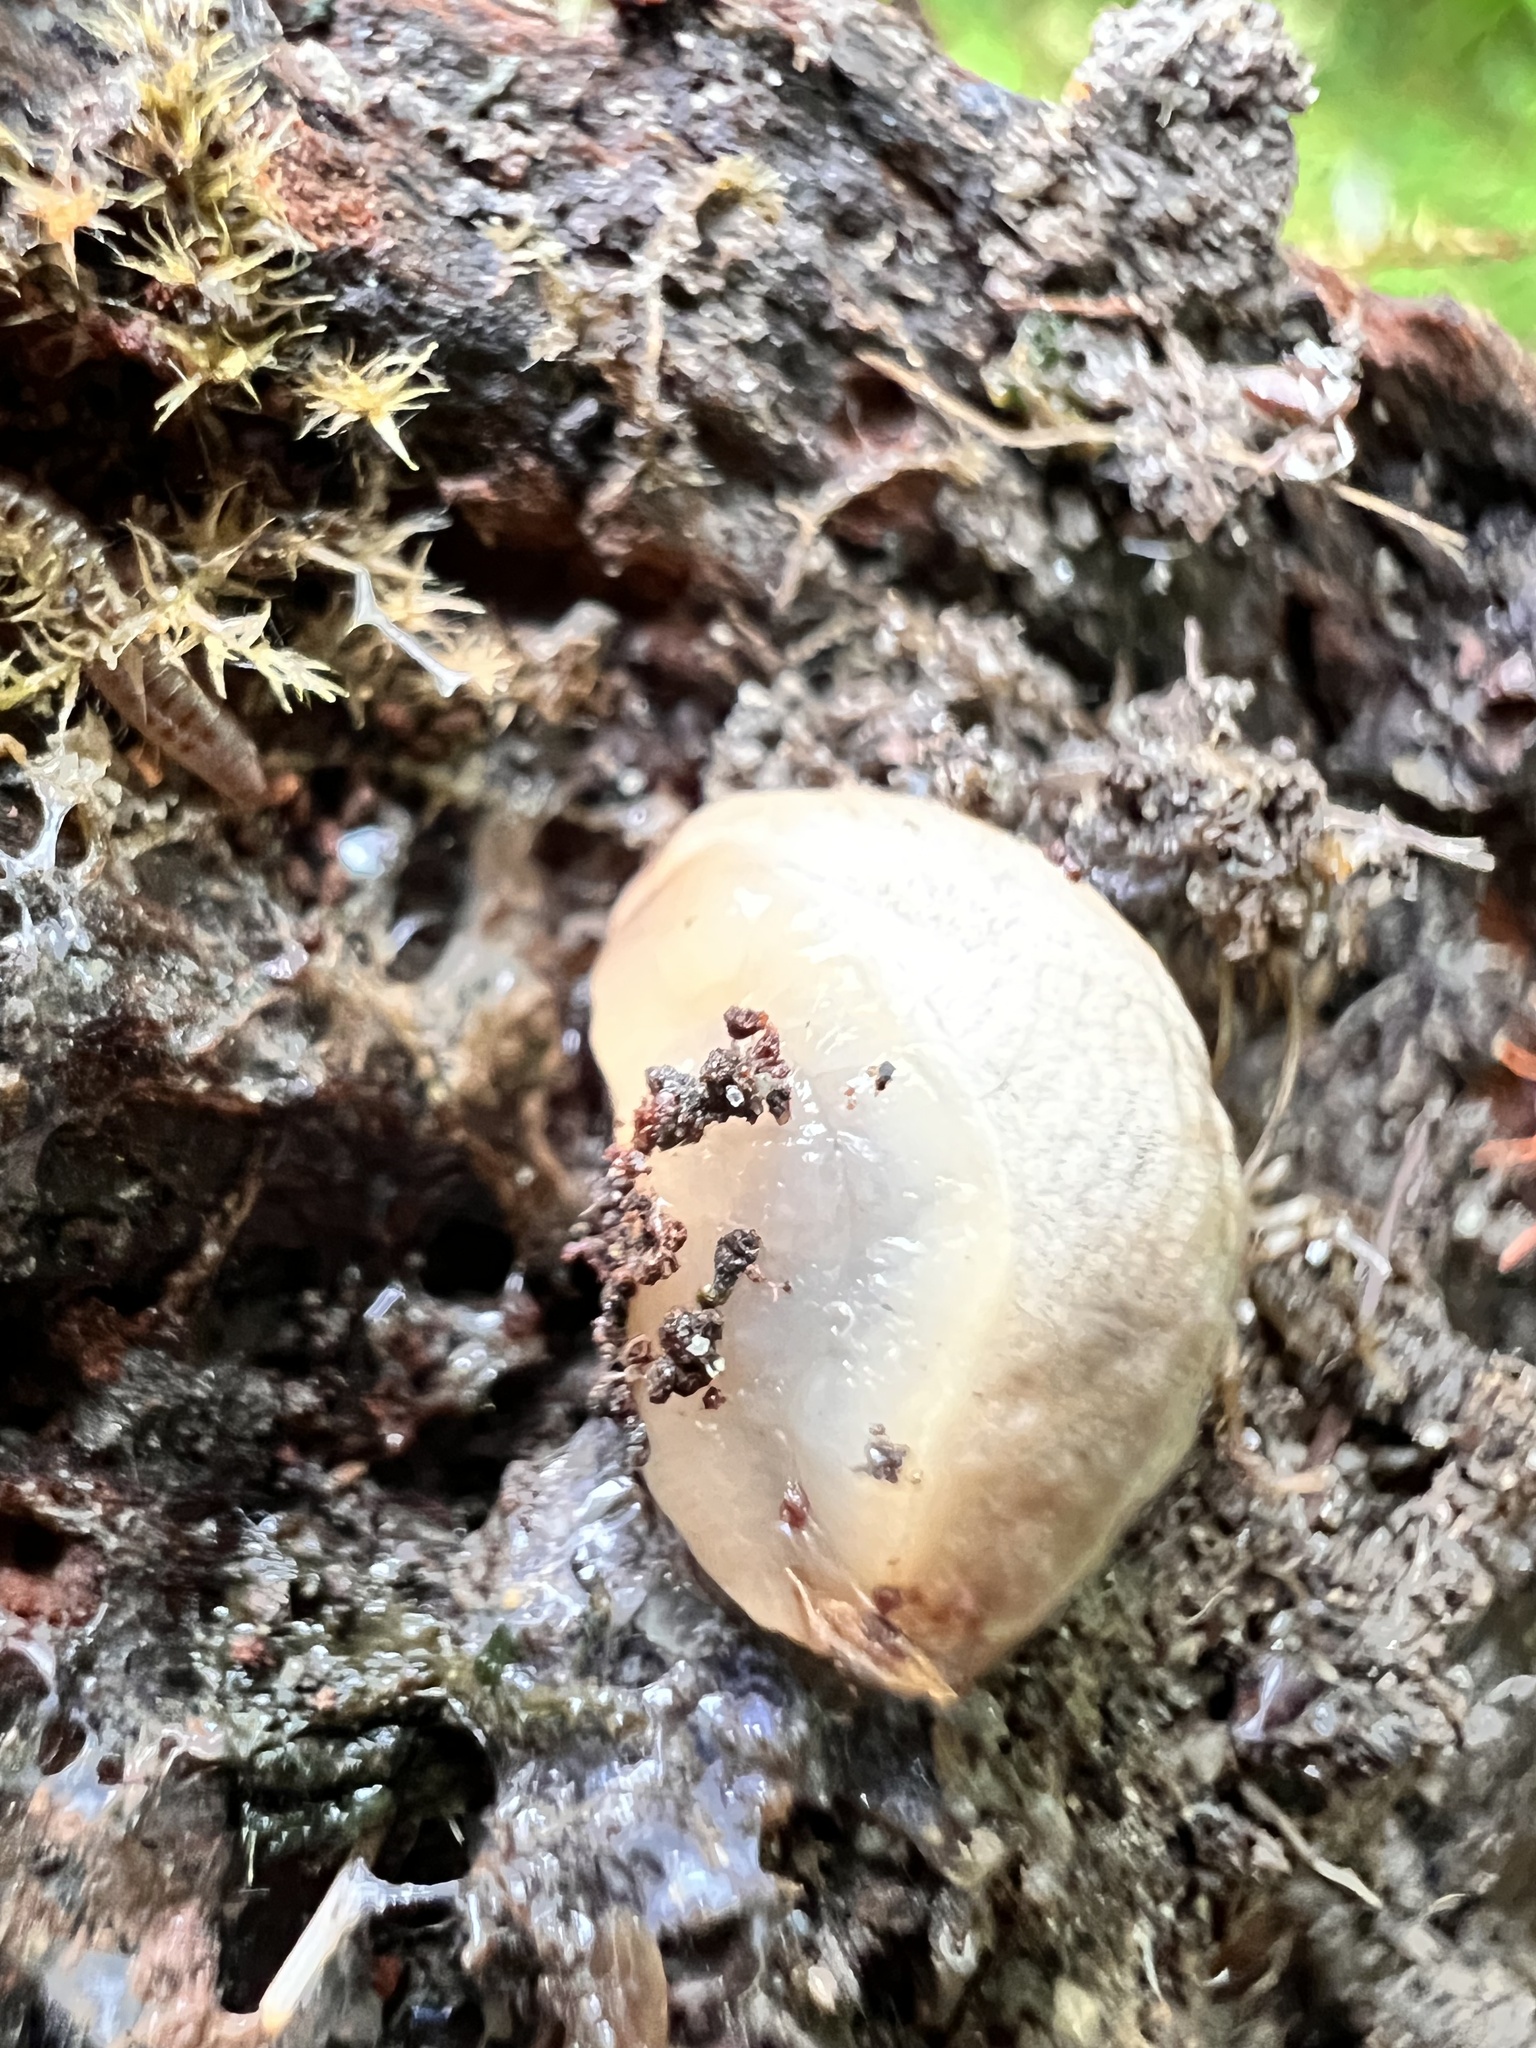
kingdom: Animalia
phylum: Mollusca
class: Gastropoda
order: Stylommatophora
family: Agriolimacidae
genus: Deroceras
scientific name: Deroceras reticulatum
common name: Gray field slug
